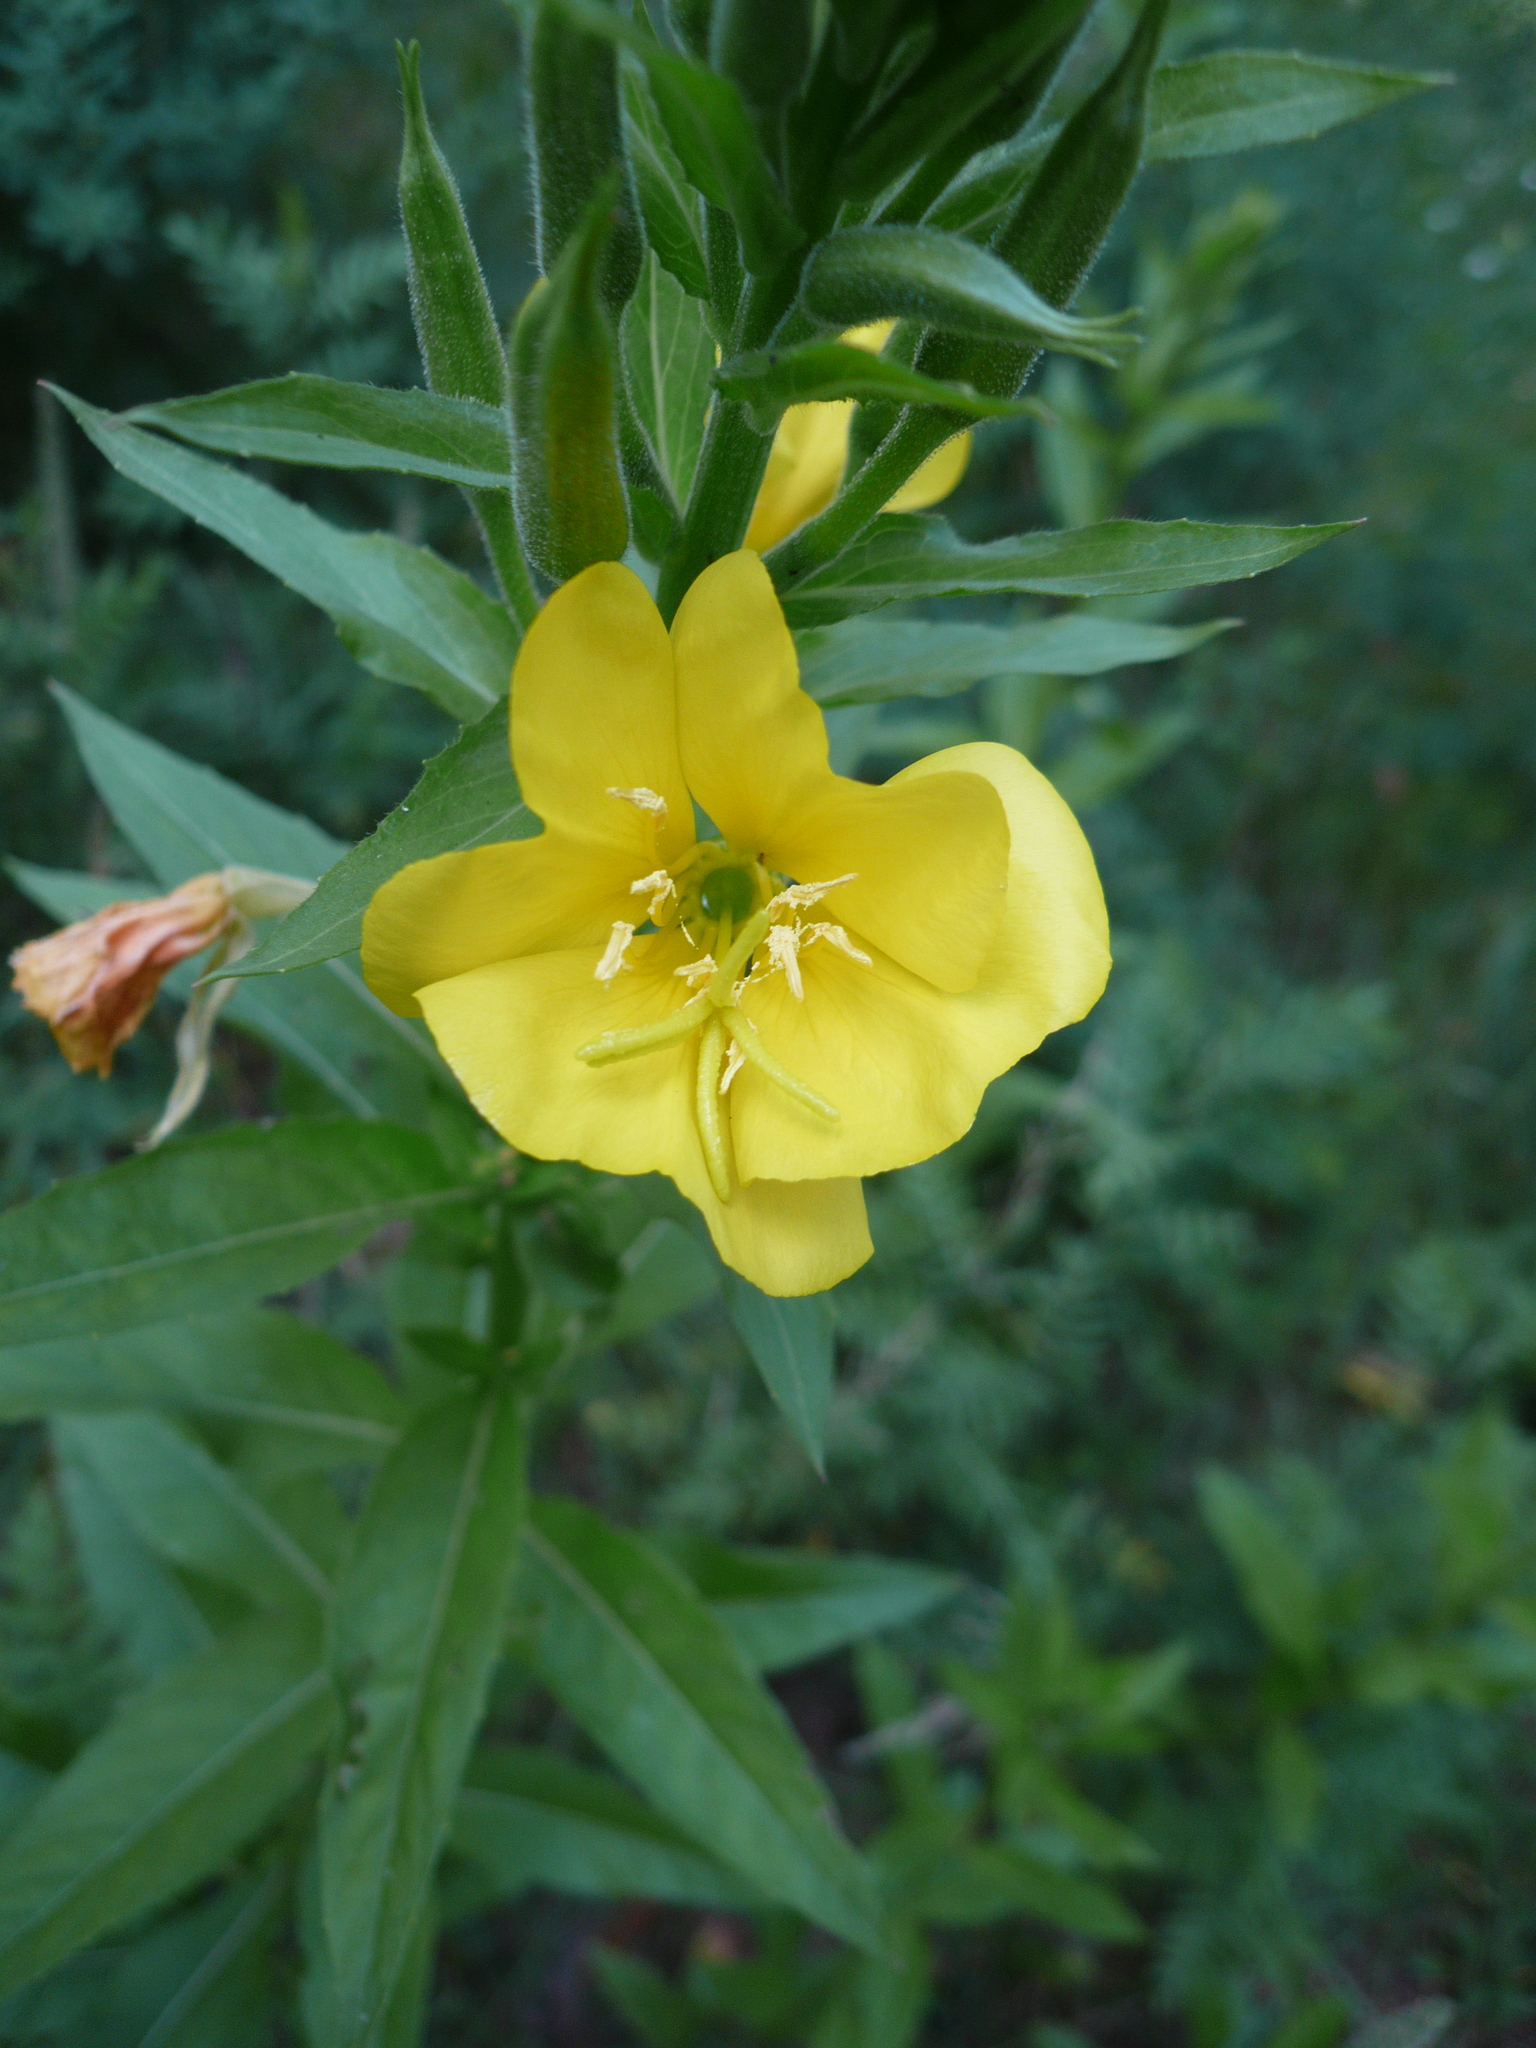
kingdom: Plantae
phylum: Tracheophyta
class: Magnoliopsida
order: Myrtales
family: Onagraceae
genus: Oenothera
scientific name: Oenothera biennis
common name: Common evening-primrose
